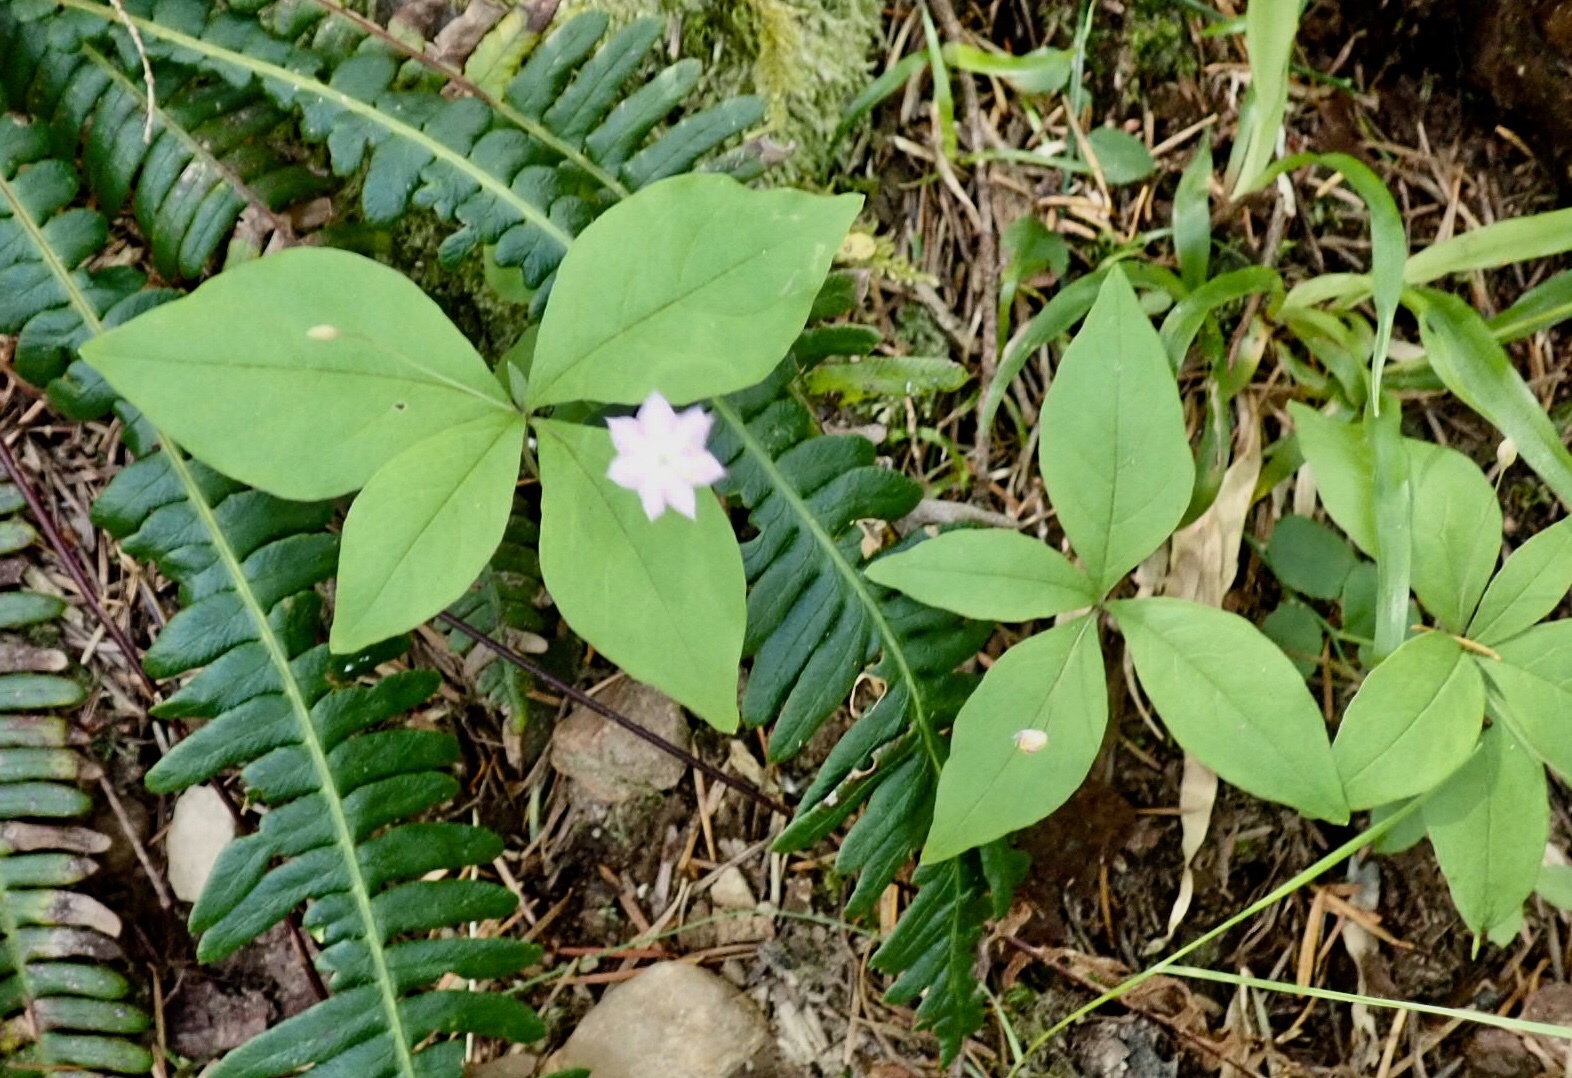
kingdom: Plantae
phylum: Tracheophyta
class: Magnoliopsida
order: Ericales
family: Primulaceae
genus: Lysimachia
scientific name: Lysimachia latifolia
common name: Pacific starflower
